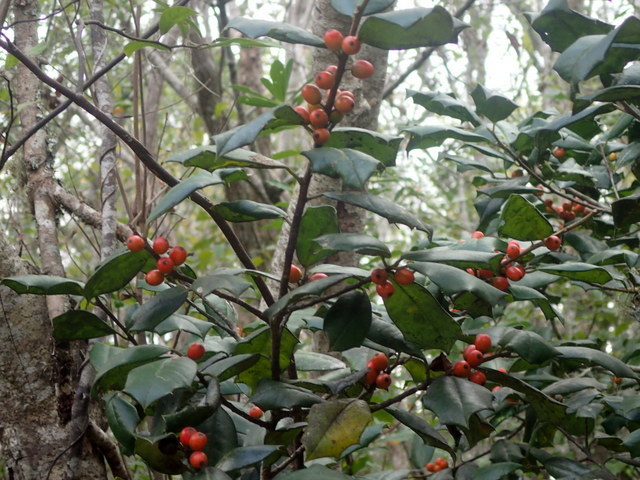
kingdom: Plantae
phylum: Tracheophyta
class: Magnoliopsida
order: Aquifoliales
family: Aquifoliaceae
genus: Ilex
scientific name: Ilex opaca
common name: American holly
